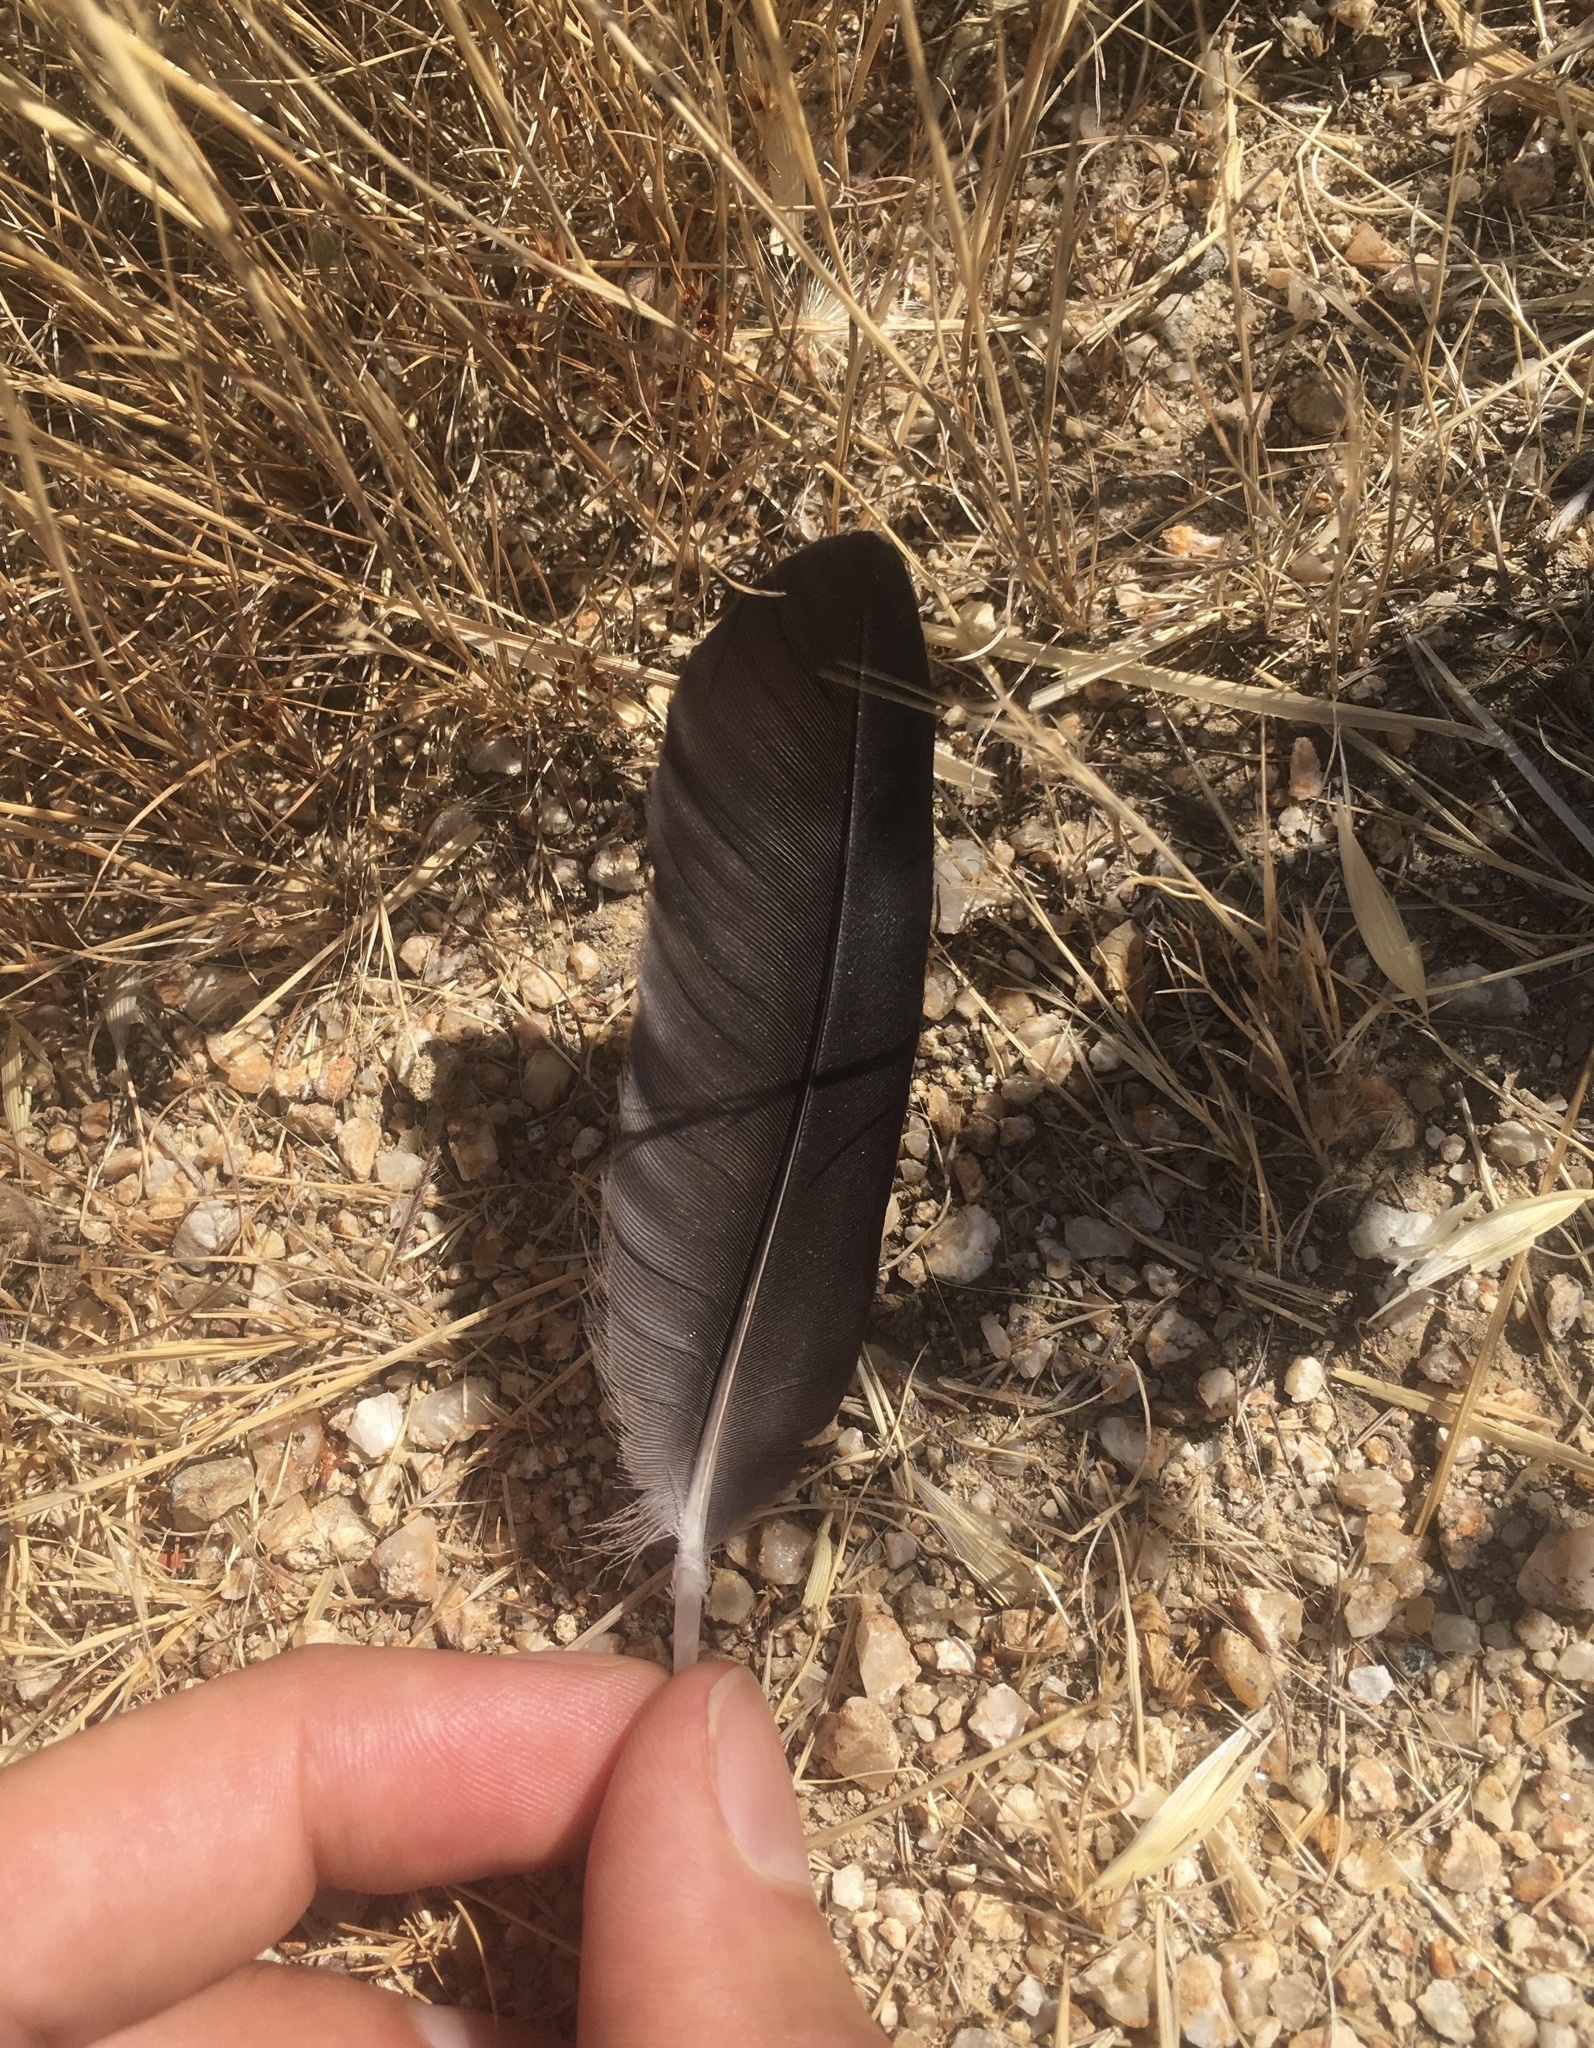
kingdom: Animalia
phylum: Chordata
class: Aves
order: Passeriformes
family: Corvidae
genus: Corvus
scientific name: Corvus brachyrhynchos
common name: American crow
